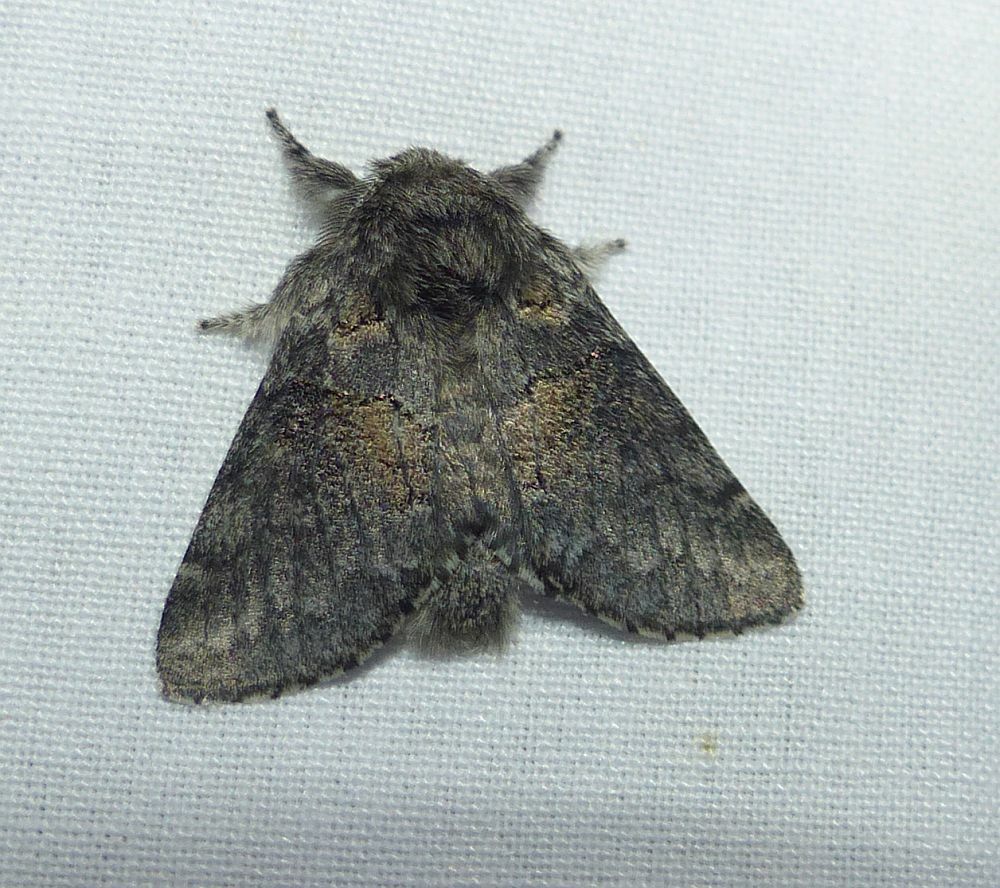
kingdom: Animalia
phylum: Arthropoda
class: Insecta
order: Lepidoptera
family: Notodontidae
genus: Gluphisia
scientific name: Gluphisia septentrionis
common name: Common gluphisia
